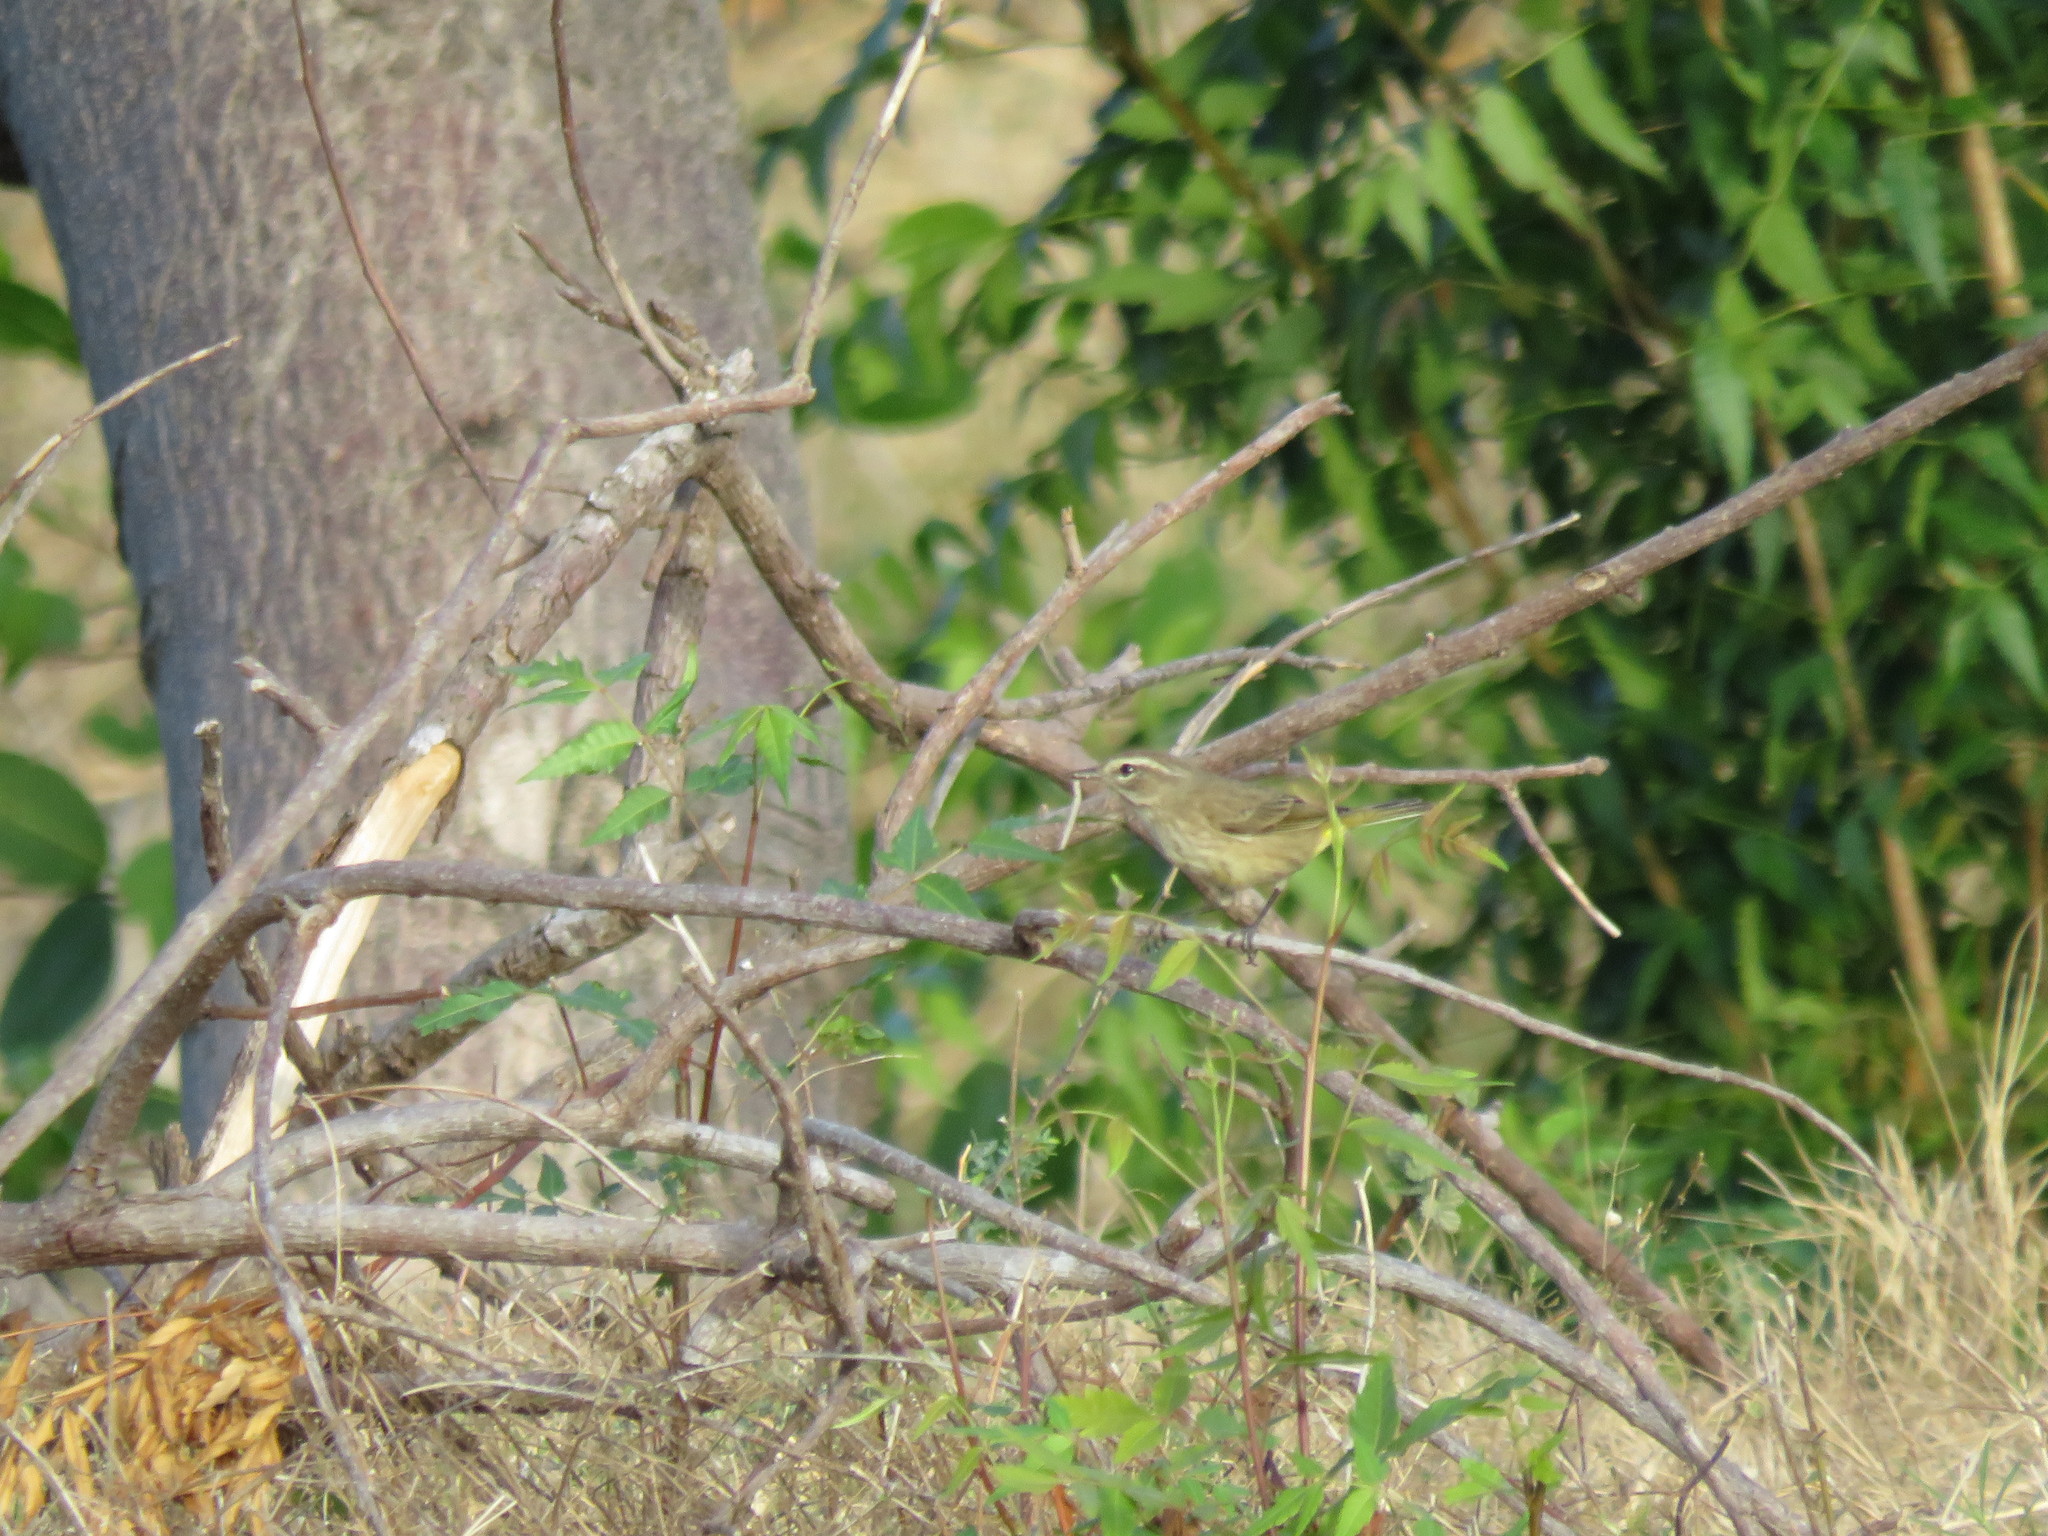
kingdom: Animalia
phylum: Chordata
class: Aves
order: Passeriformes
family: Parulidae
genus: Setophaga
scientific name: Setophaga palmarum
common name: Palm warbler
